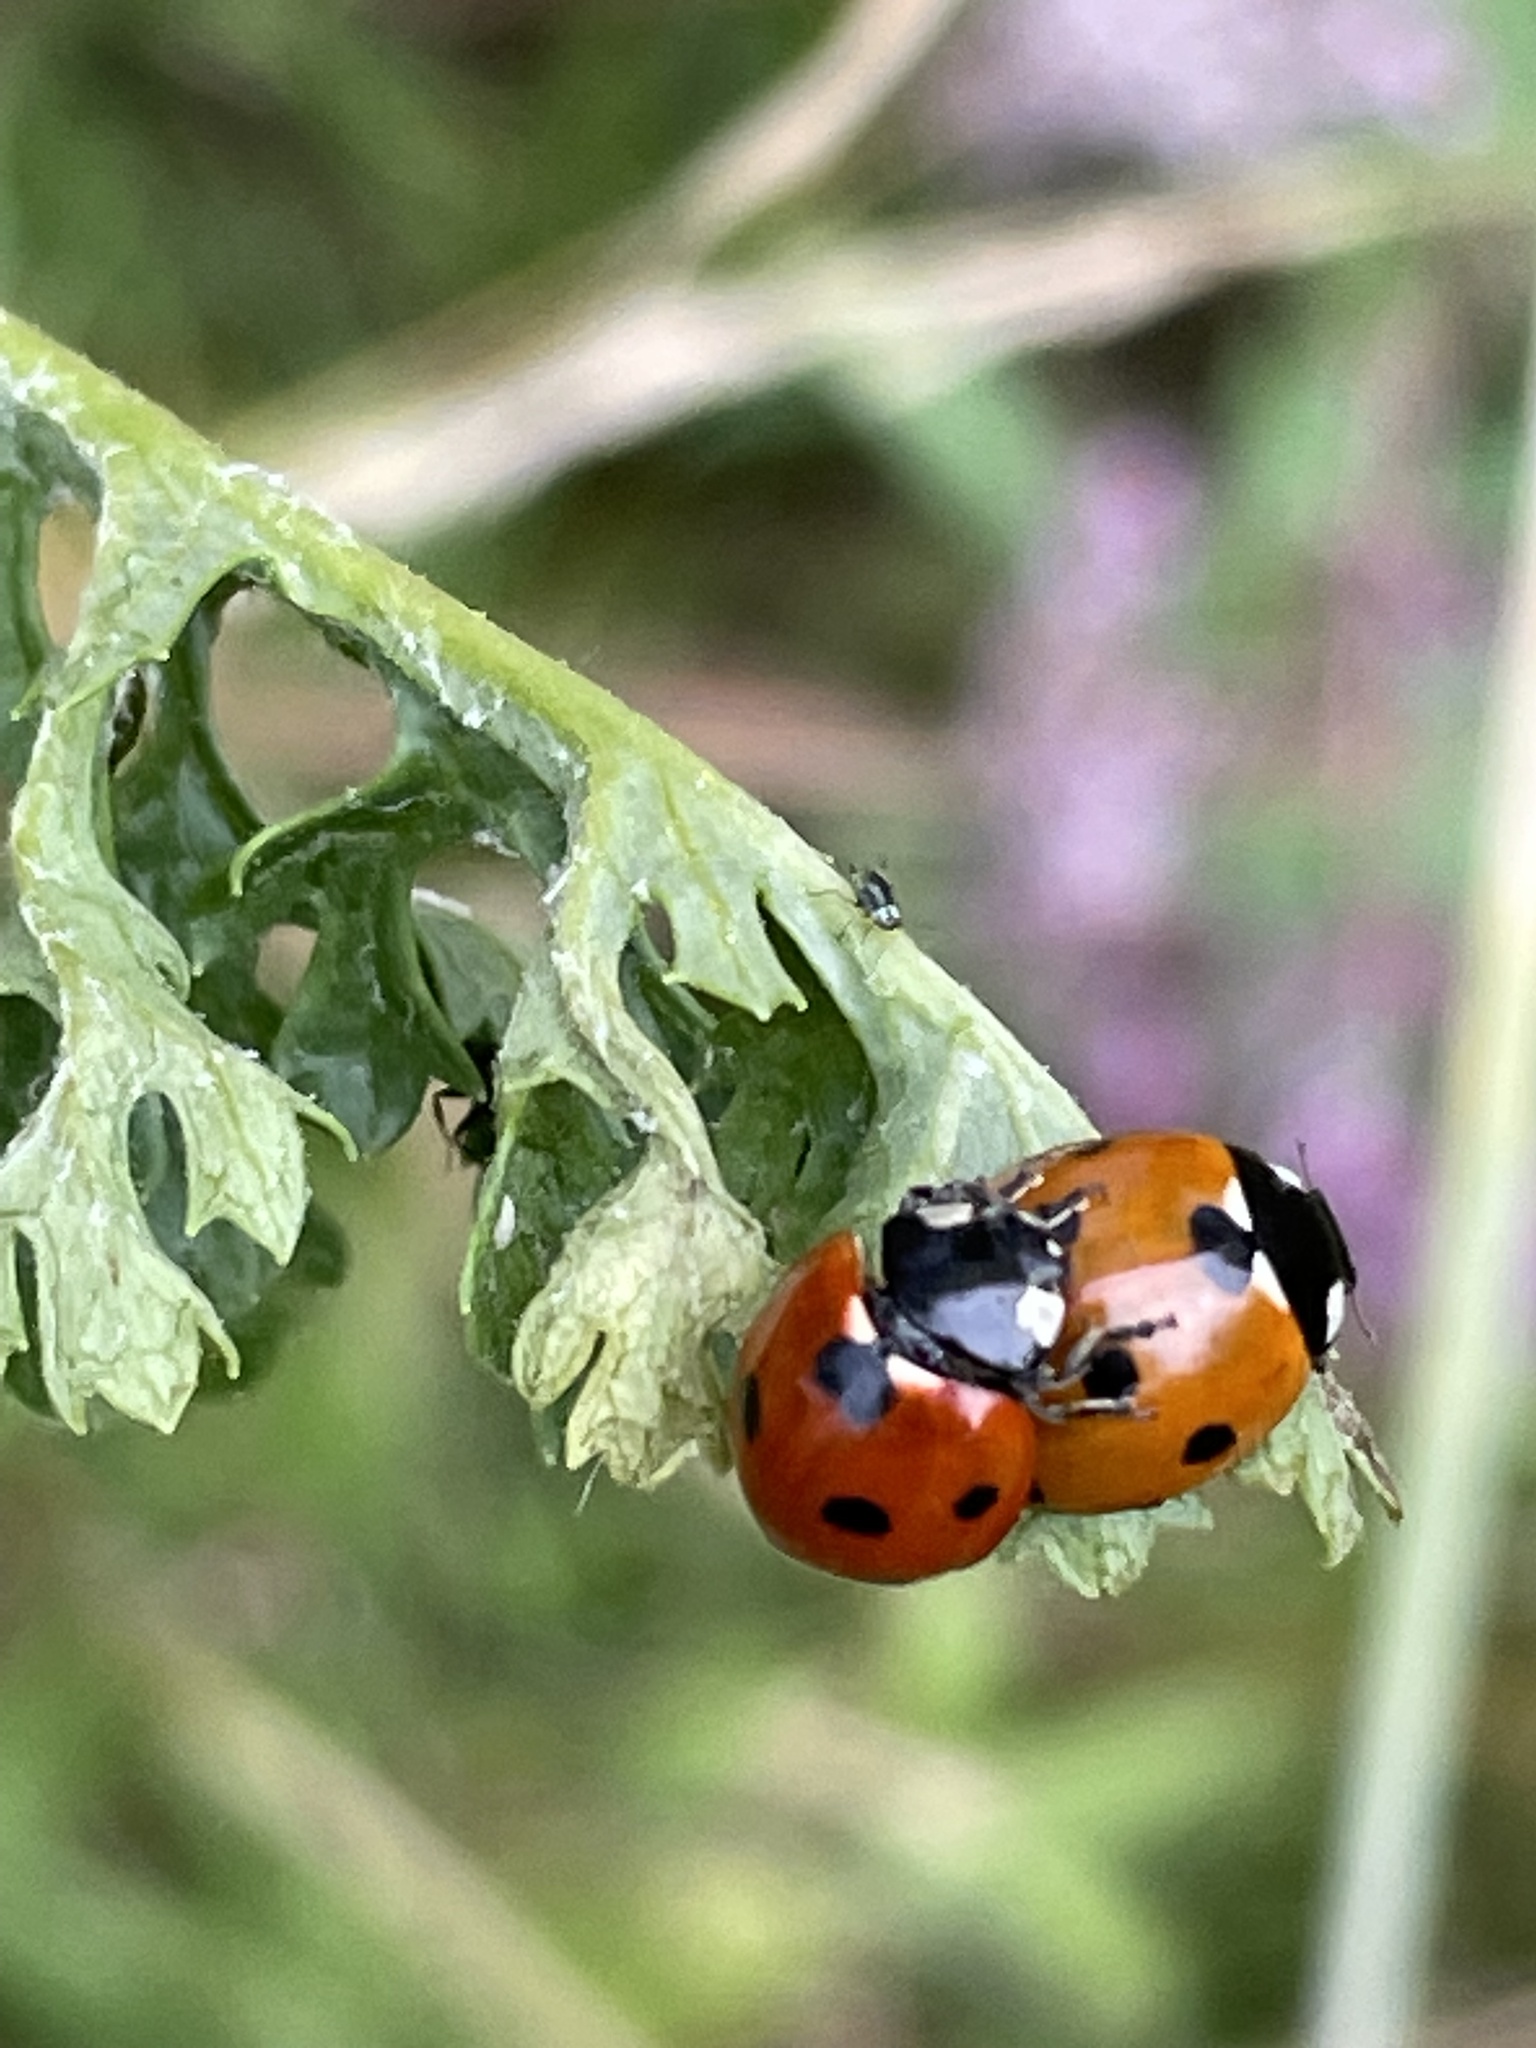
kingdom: Animalia
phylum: Arthropoda
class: Insecta
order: Coleoptera
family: Coccinellidae
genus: Coccinella
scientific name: Coccinella septempunctata
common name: Sevenspotted lady beetle
